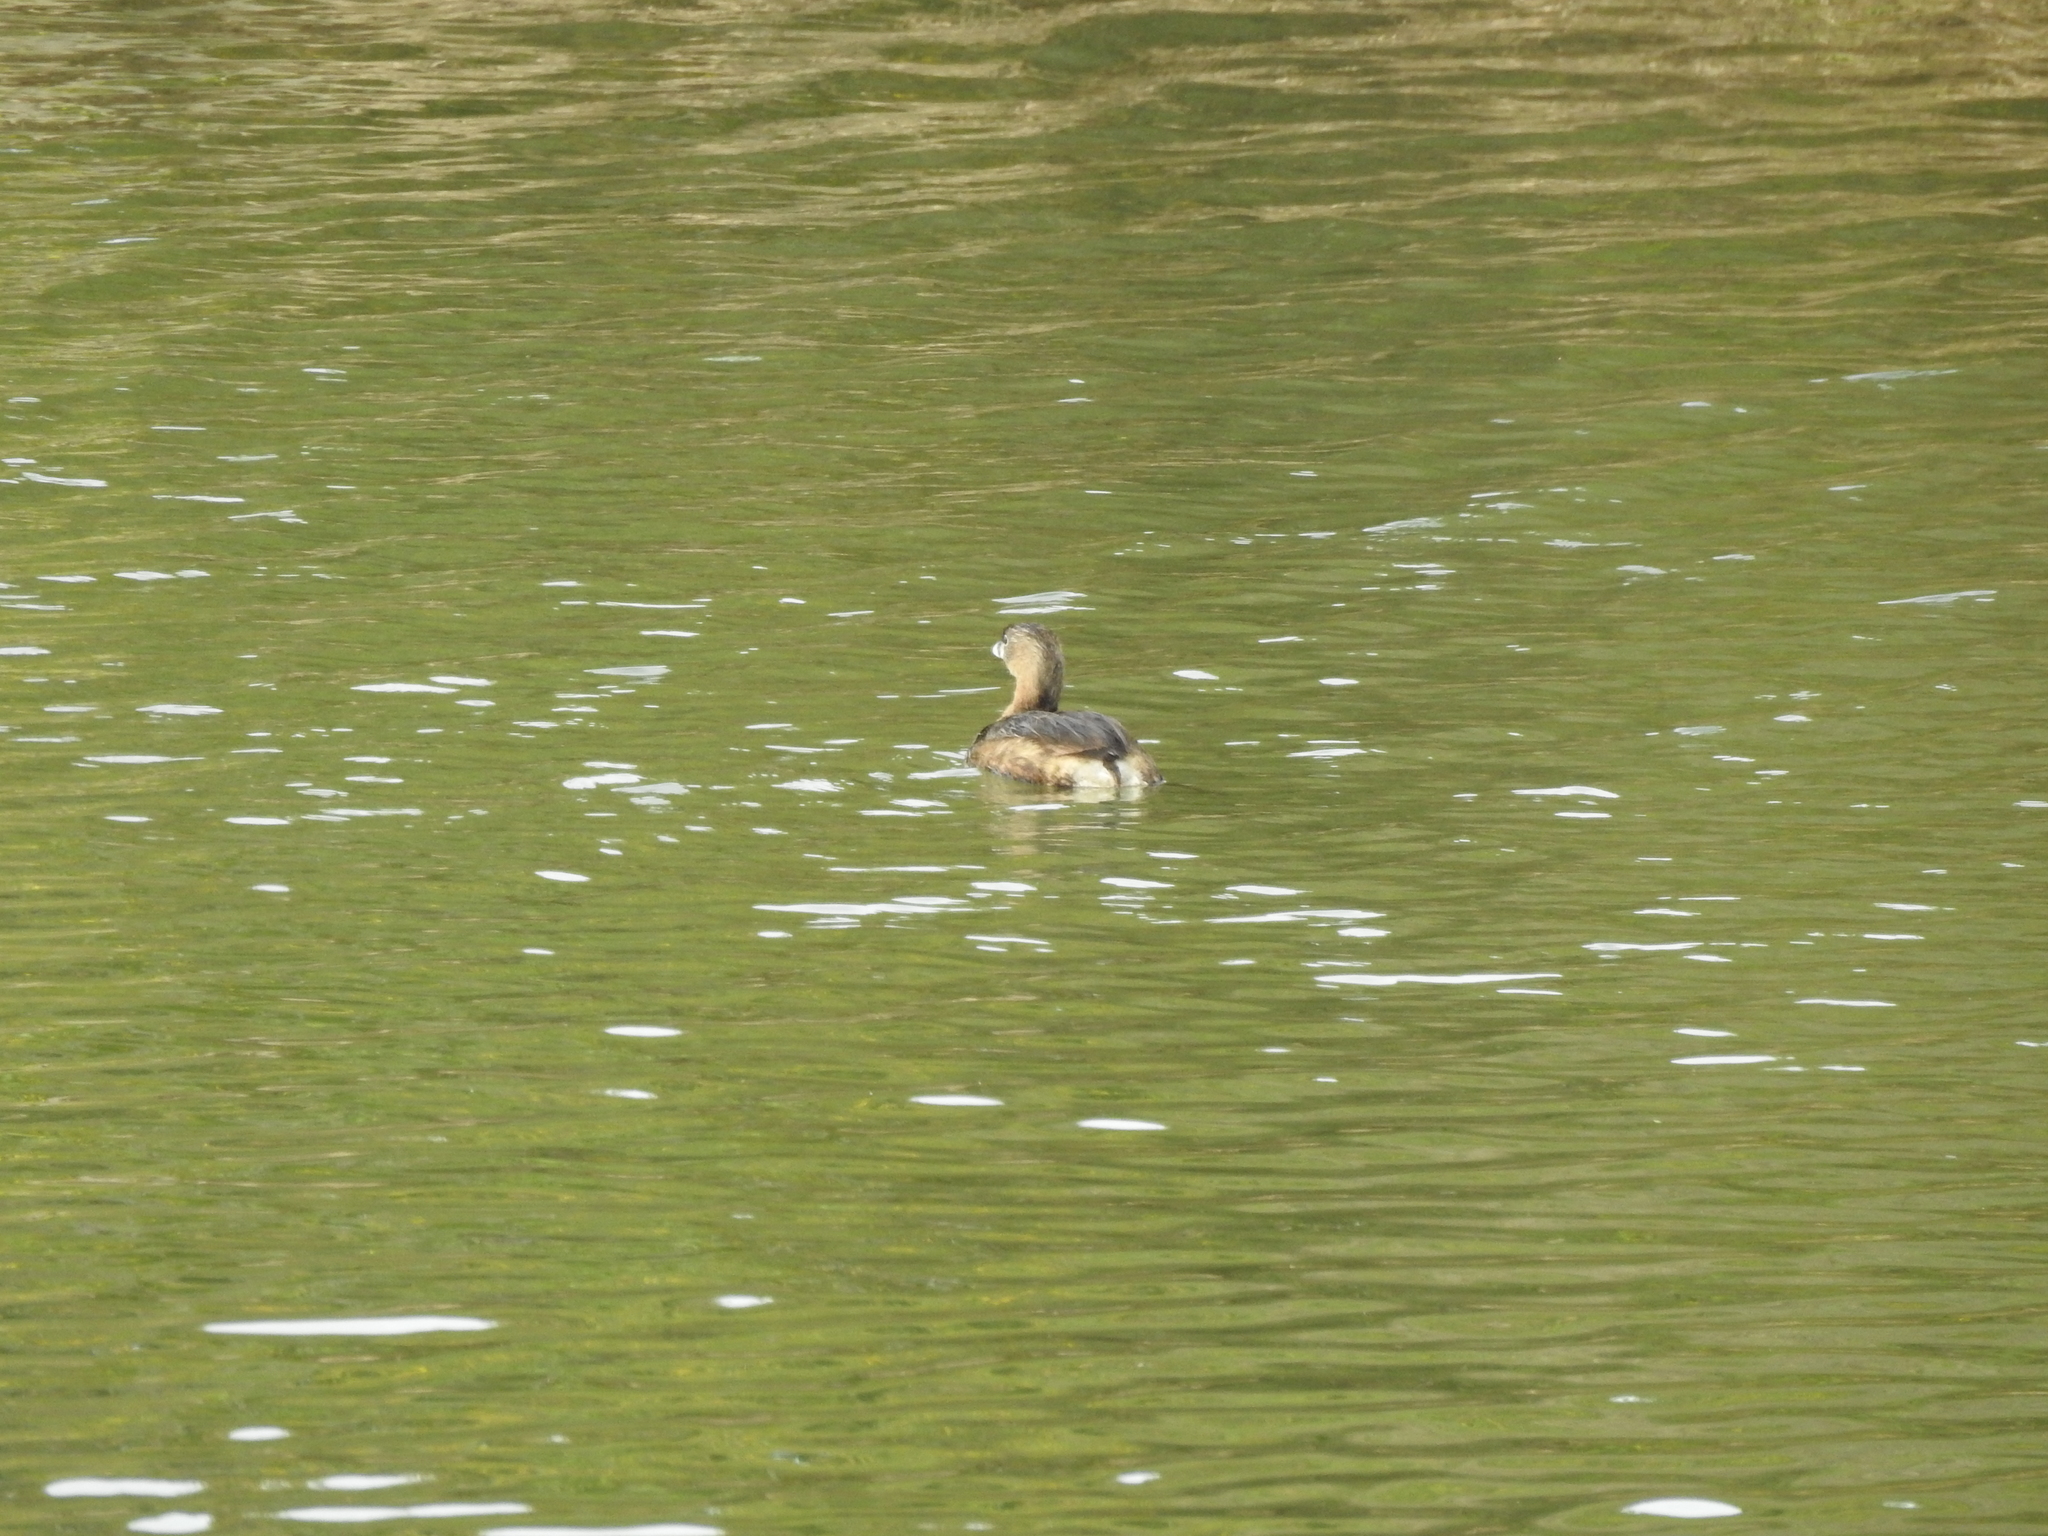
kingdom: Animalia
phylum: Chordata
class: Aves
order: Podicipediformes
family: Podicipedidae
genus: Podilymbus
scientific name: Podilymbus podiceps
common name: Pied-billed grebe
